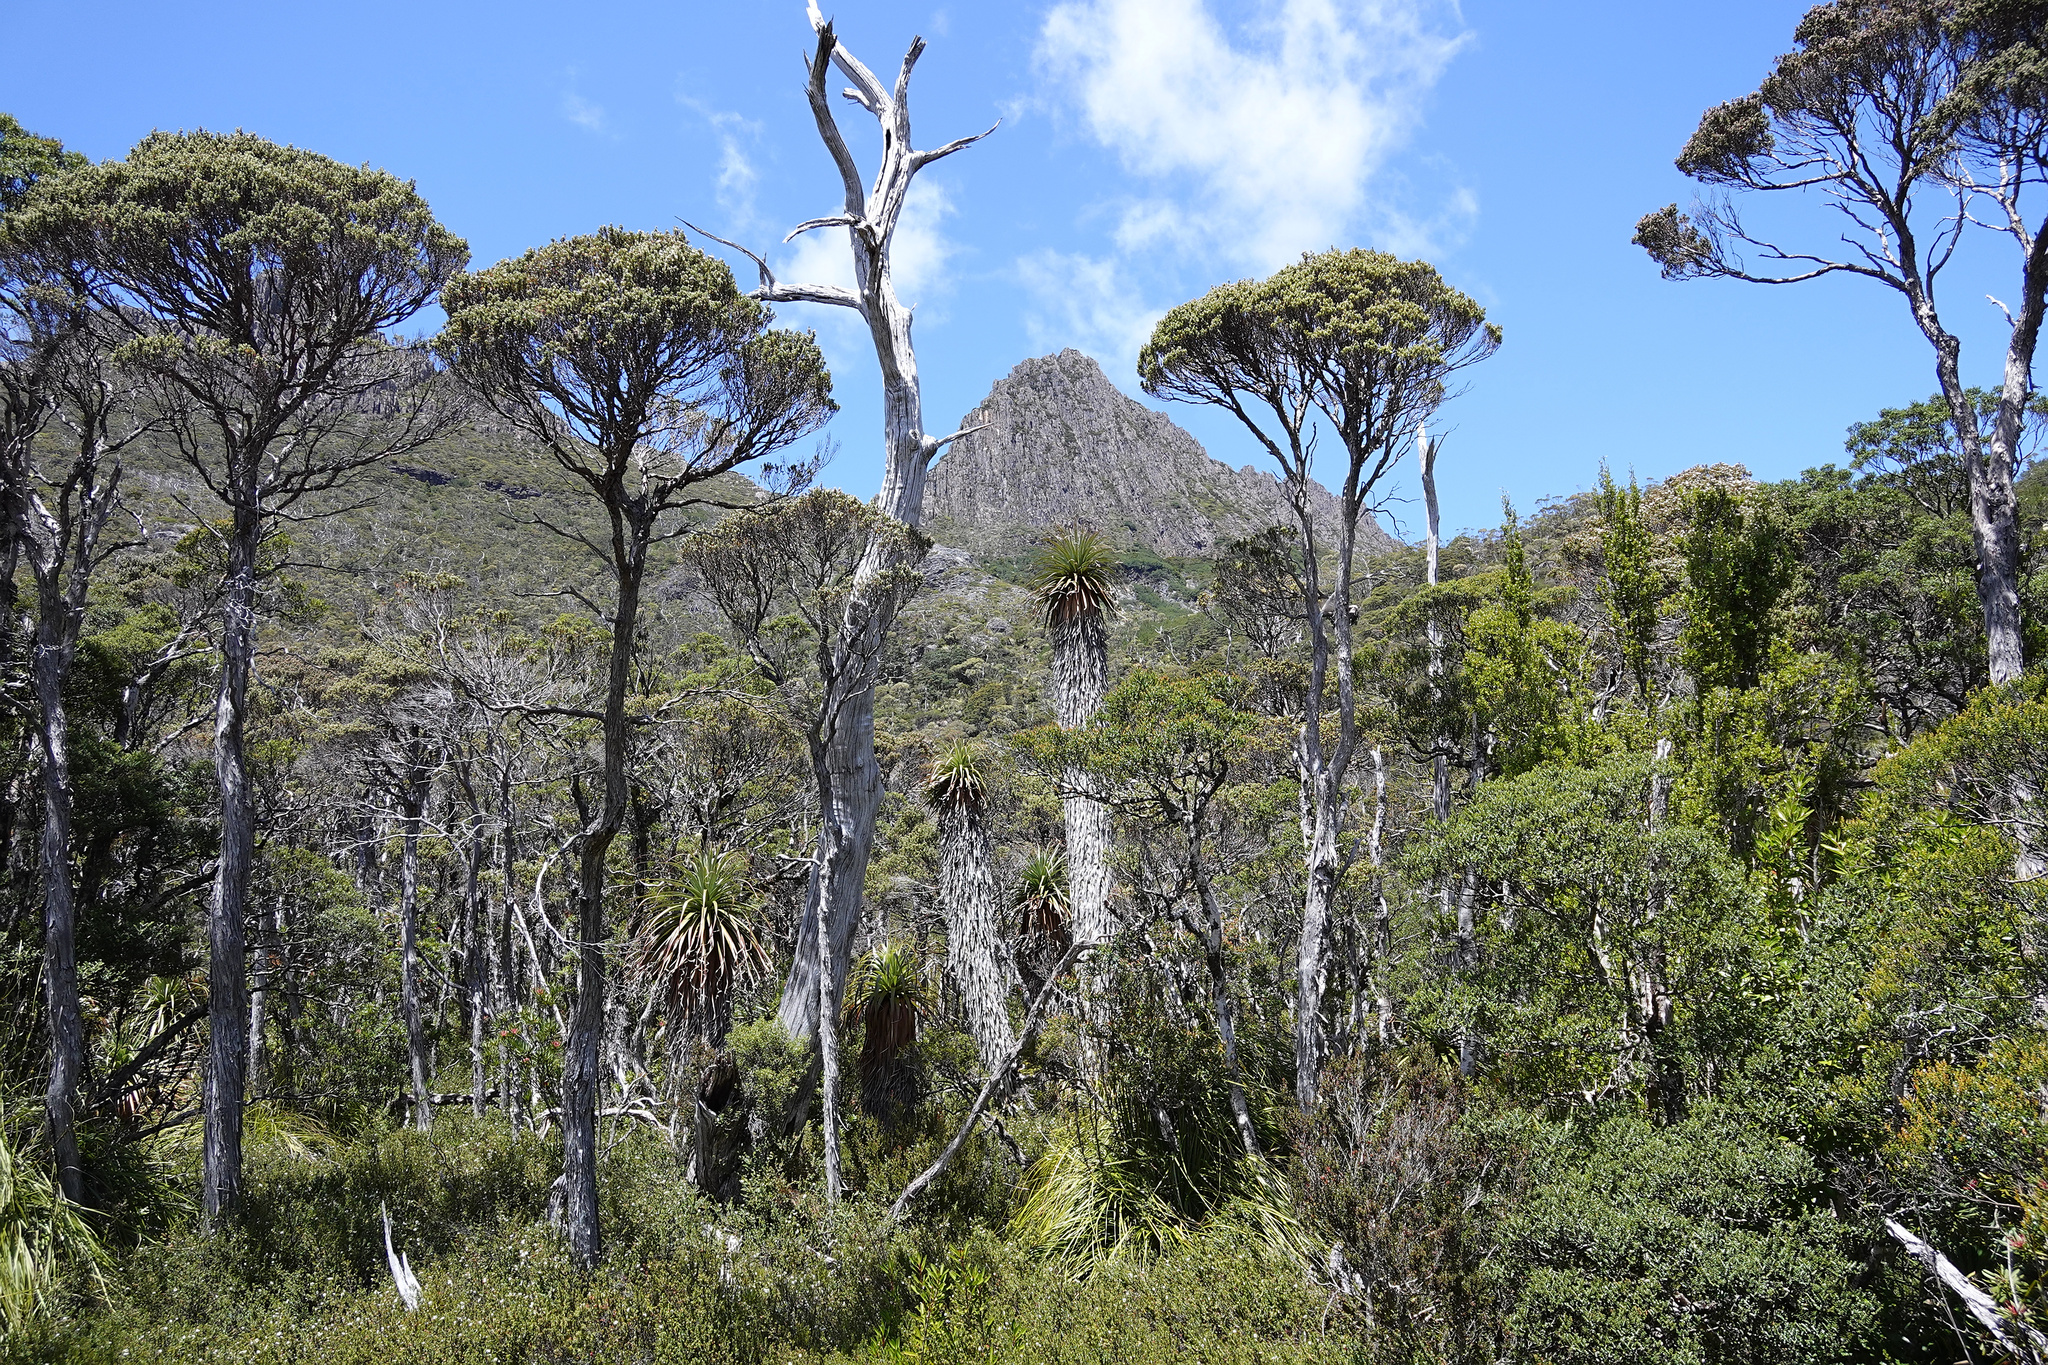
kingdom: Plantae
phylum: Tracheophyta
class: Magnoliopsida
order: Ericales
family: Ericaceae
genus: Dracophyllum
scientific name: Dracophyllum pandanifolium
